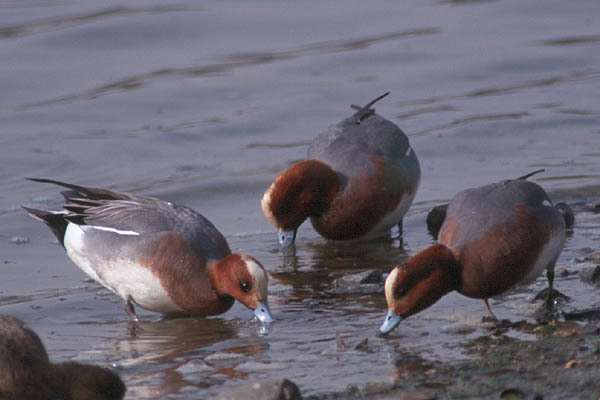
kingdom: Animalia
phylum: Chordata
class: Aves
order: Anseriformes
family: Anatidae
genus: Mareca
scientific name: Mareca penelope
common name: Eurasian wigeon
